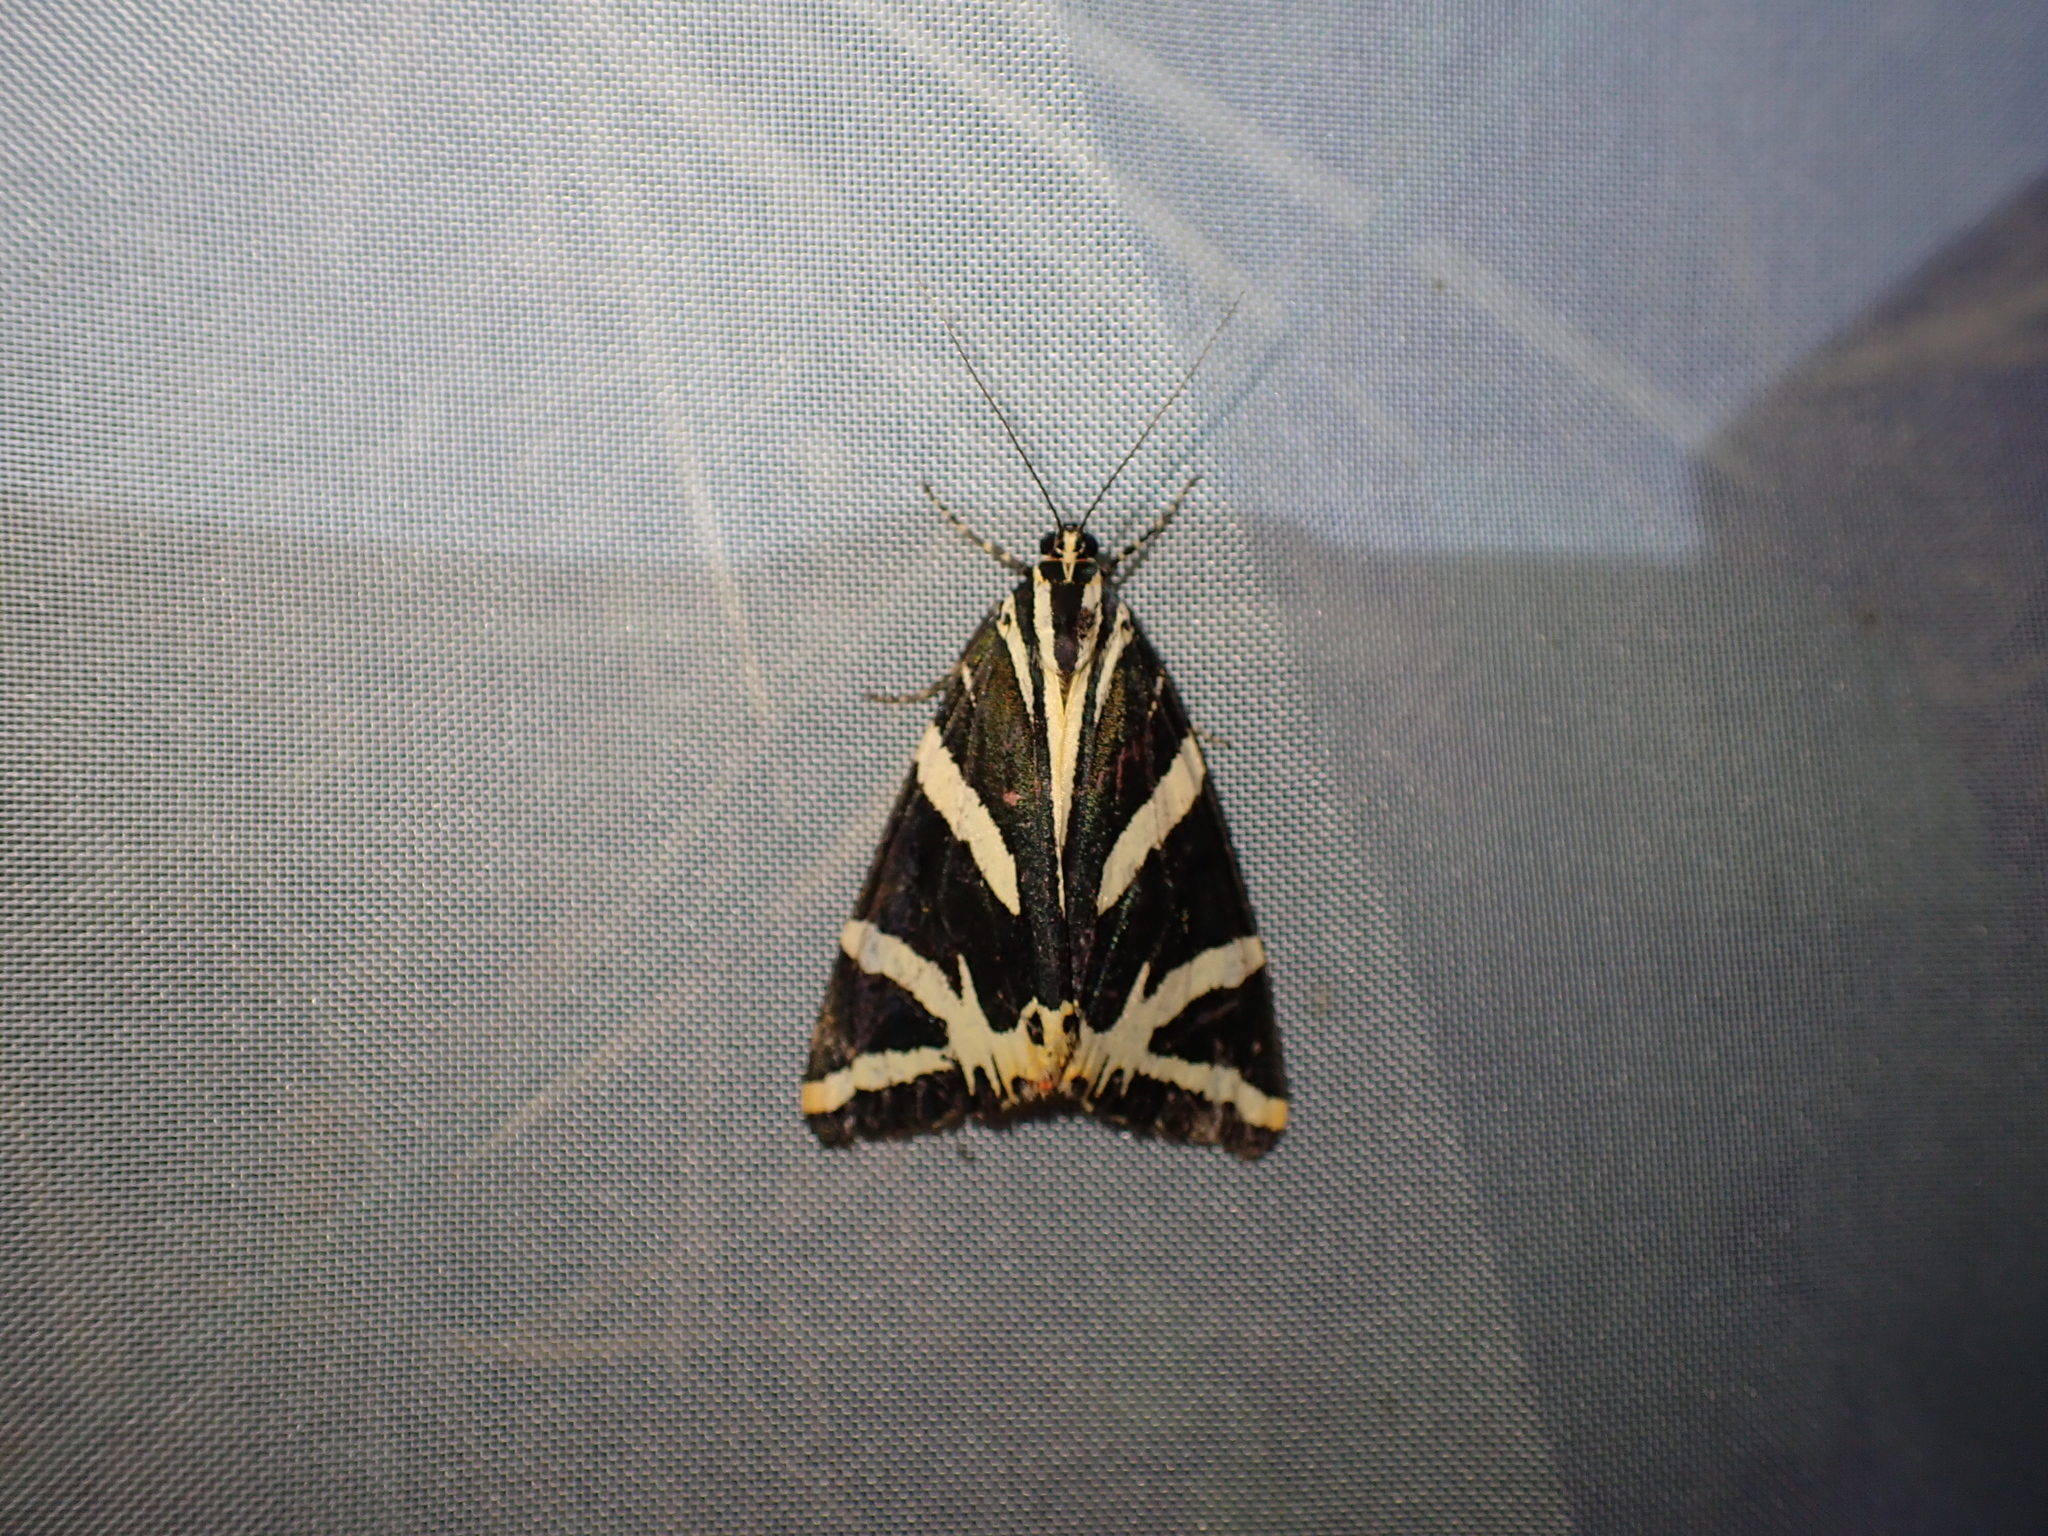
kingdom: Animalia
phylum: Arthropoda
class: Insecta
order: Lepidoptera
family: Erebidae
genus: Euplagia
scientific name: Euplagia quadripunctaria
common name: Jersey tiger
